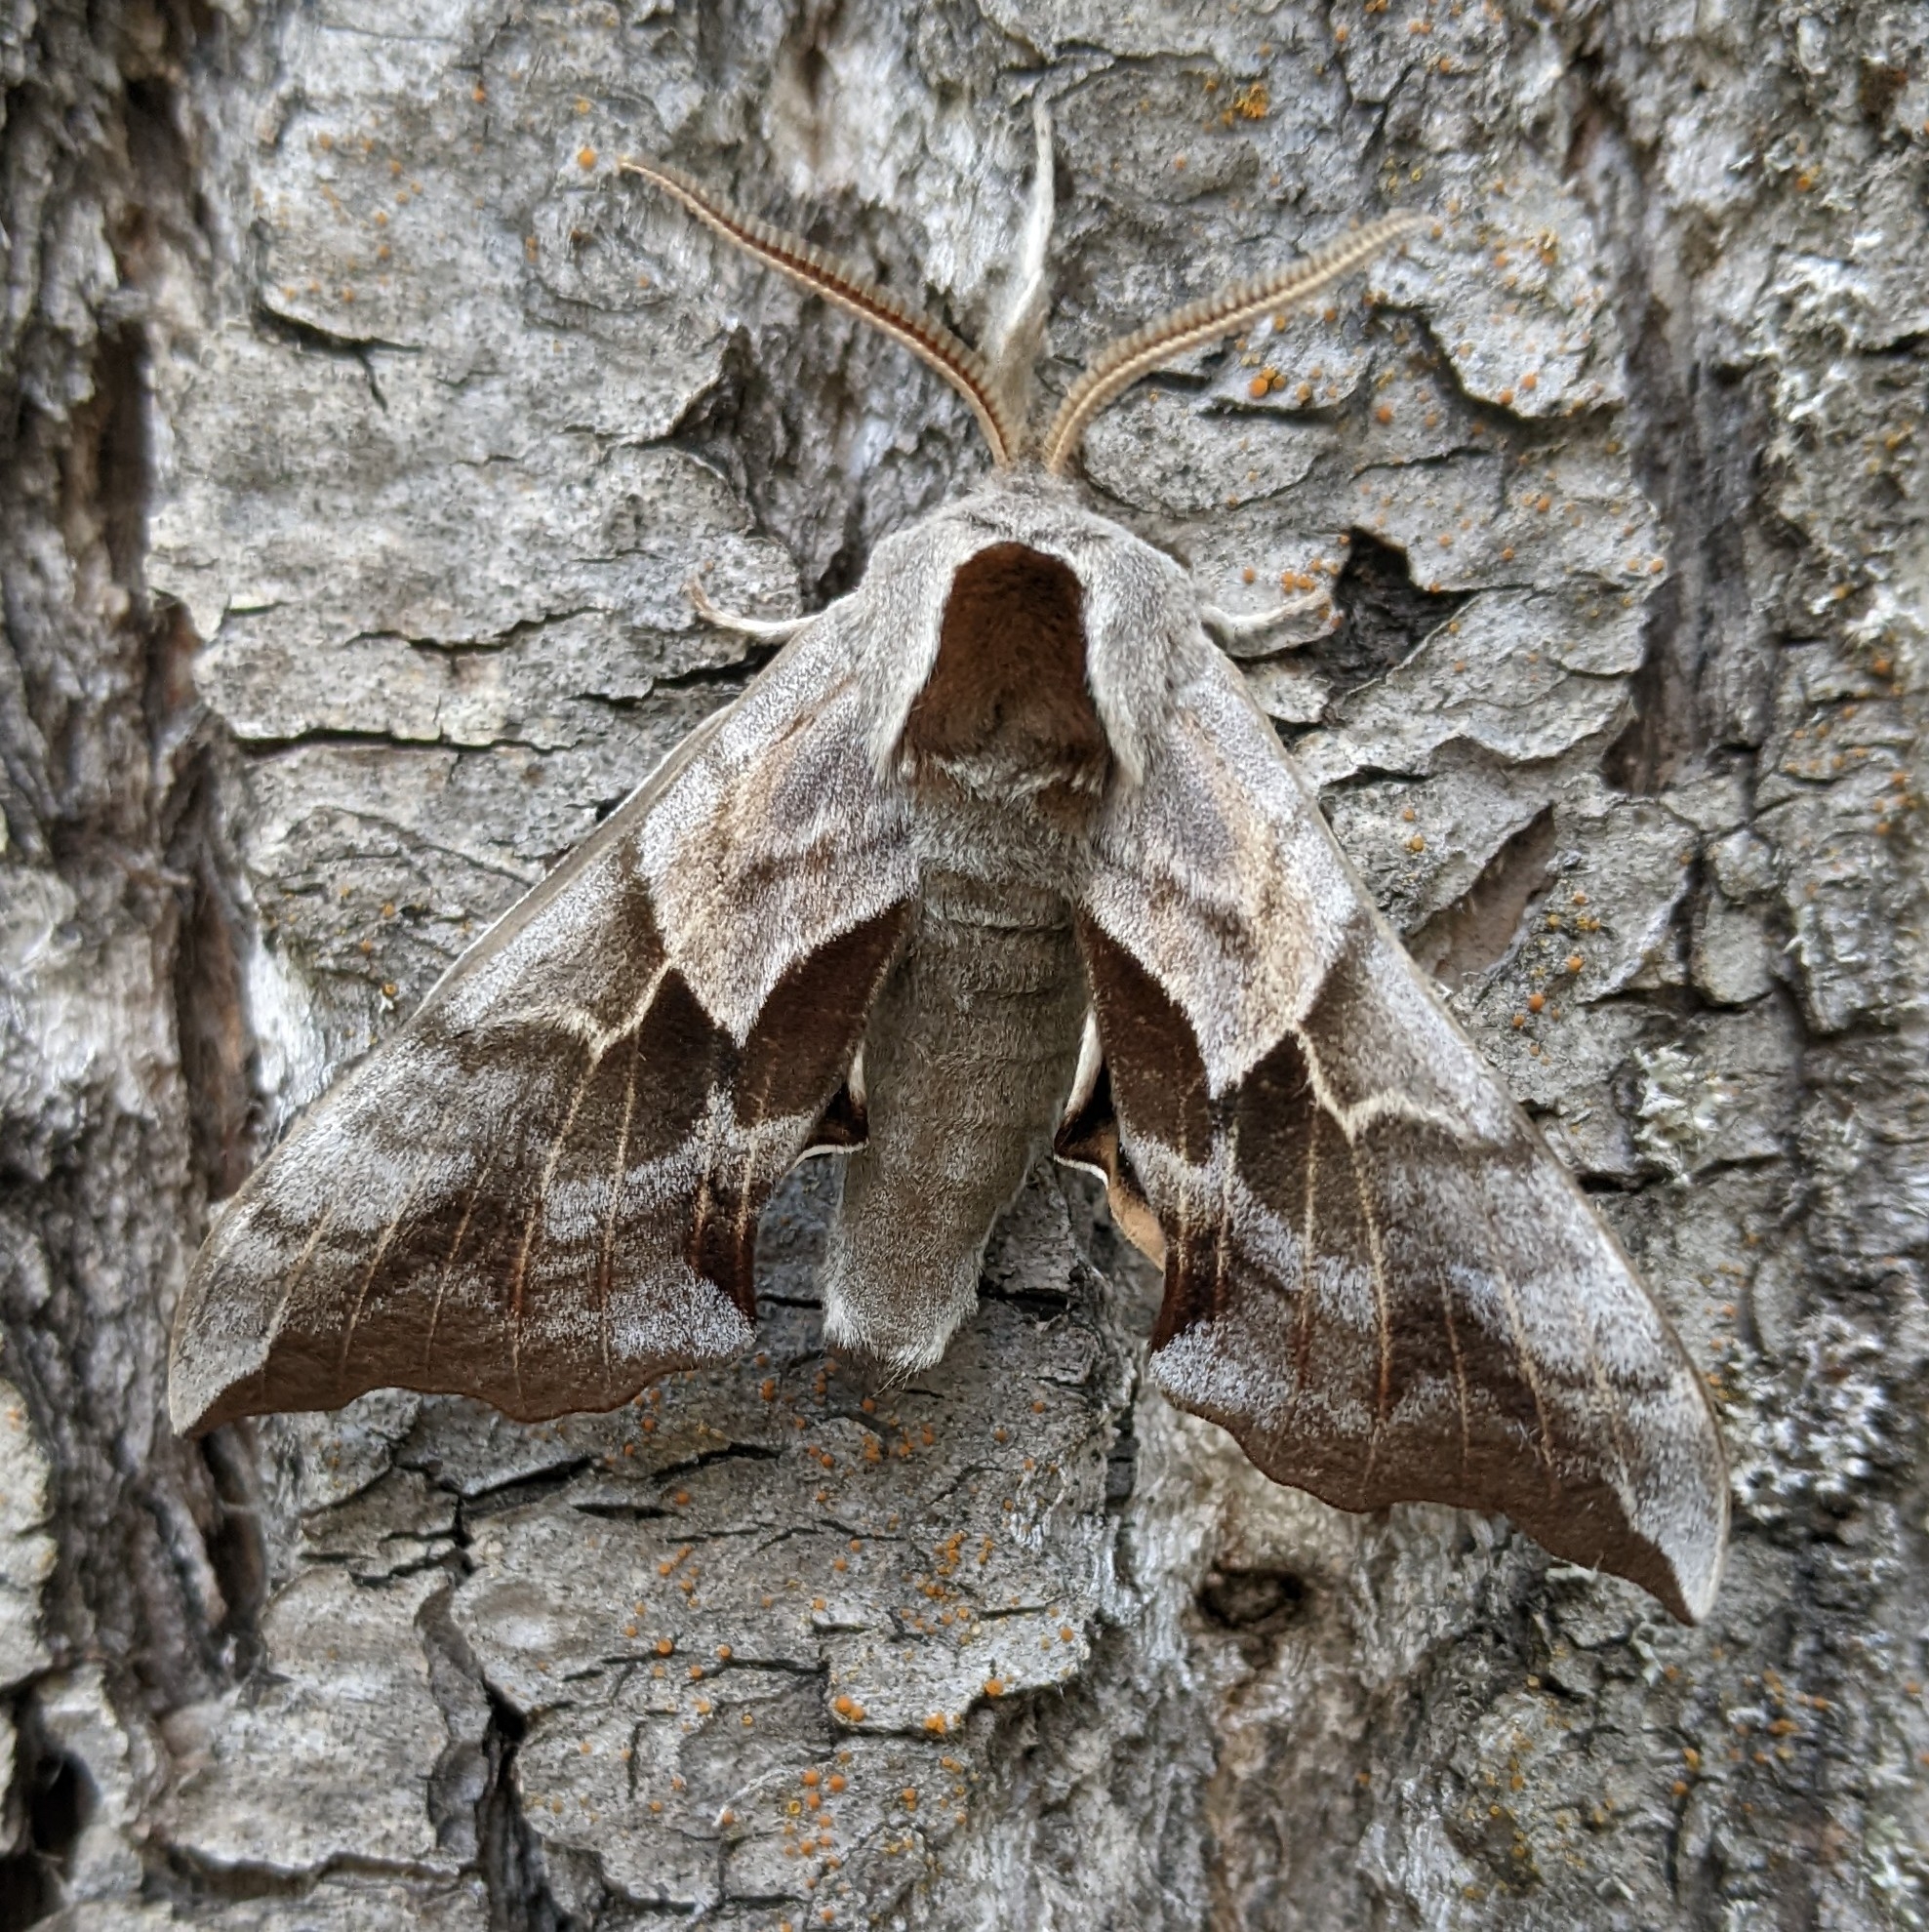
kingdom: Animalia
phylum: Arthropoda
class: Insecta
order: Lepidoptera
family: Sphingidae
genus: Smerinthus
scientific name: Smerinthus cerisyi
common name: Cerisy's sphinx moth
